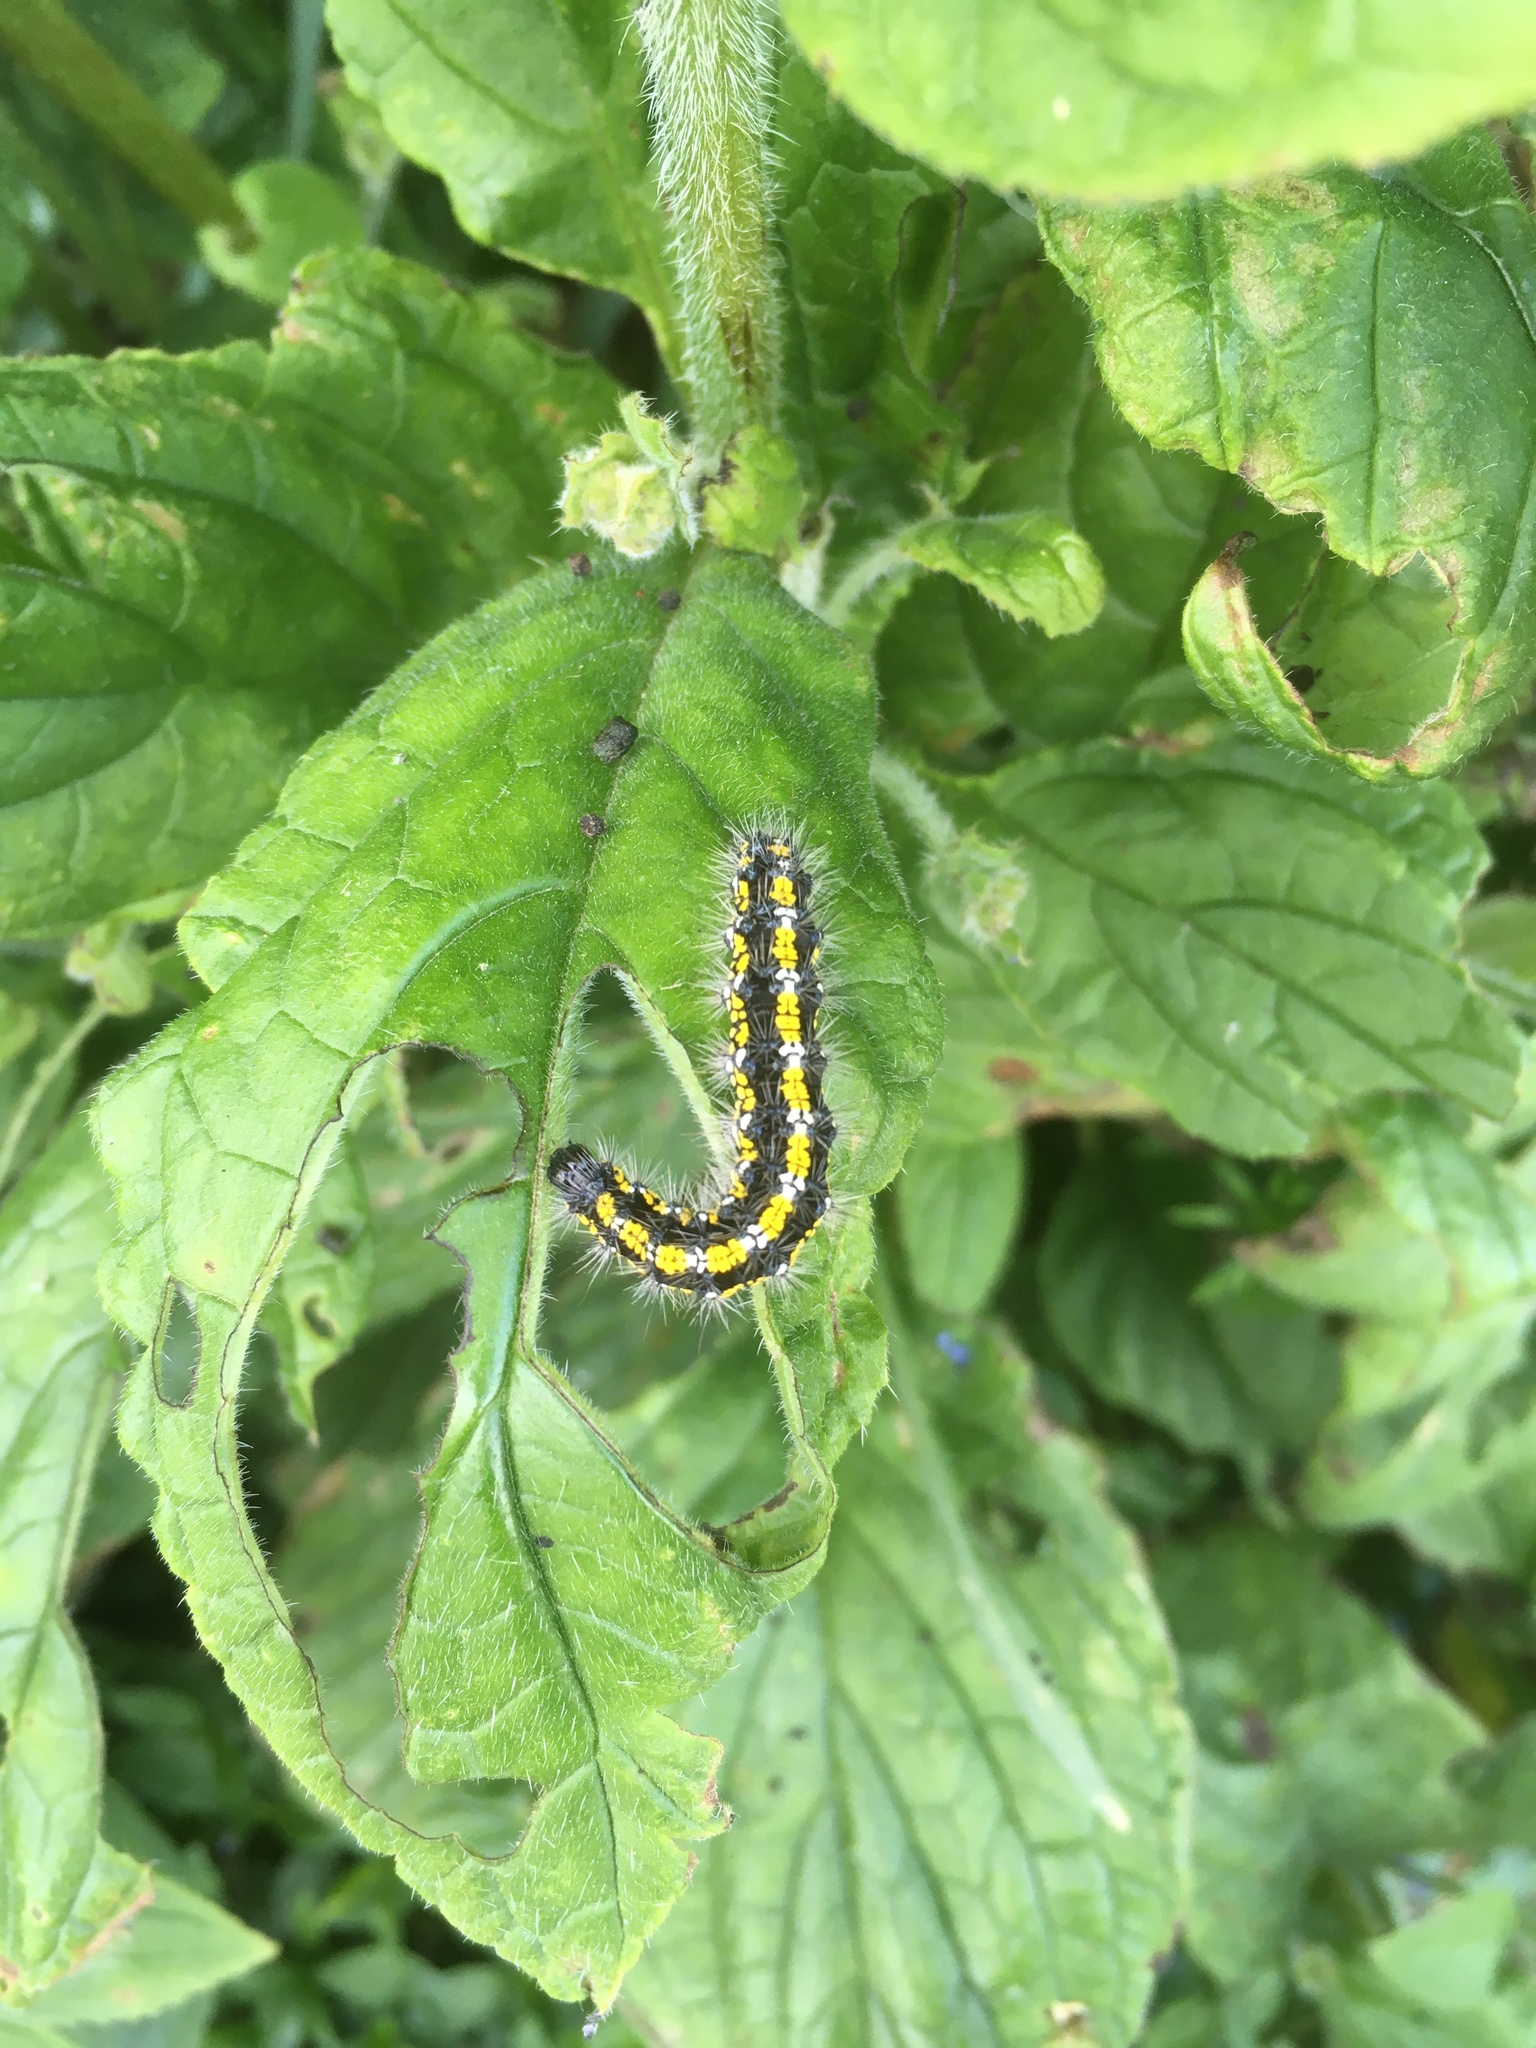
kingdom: Animalia
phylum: Arthropoda
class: Insecta
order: Lepidoptera
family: Erebidae
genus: Callimorpha
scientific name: Callimorpha dominula
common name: Scarlet tiger
